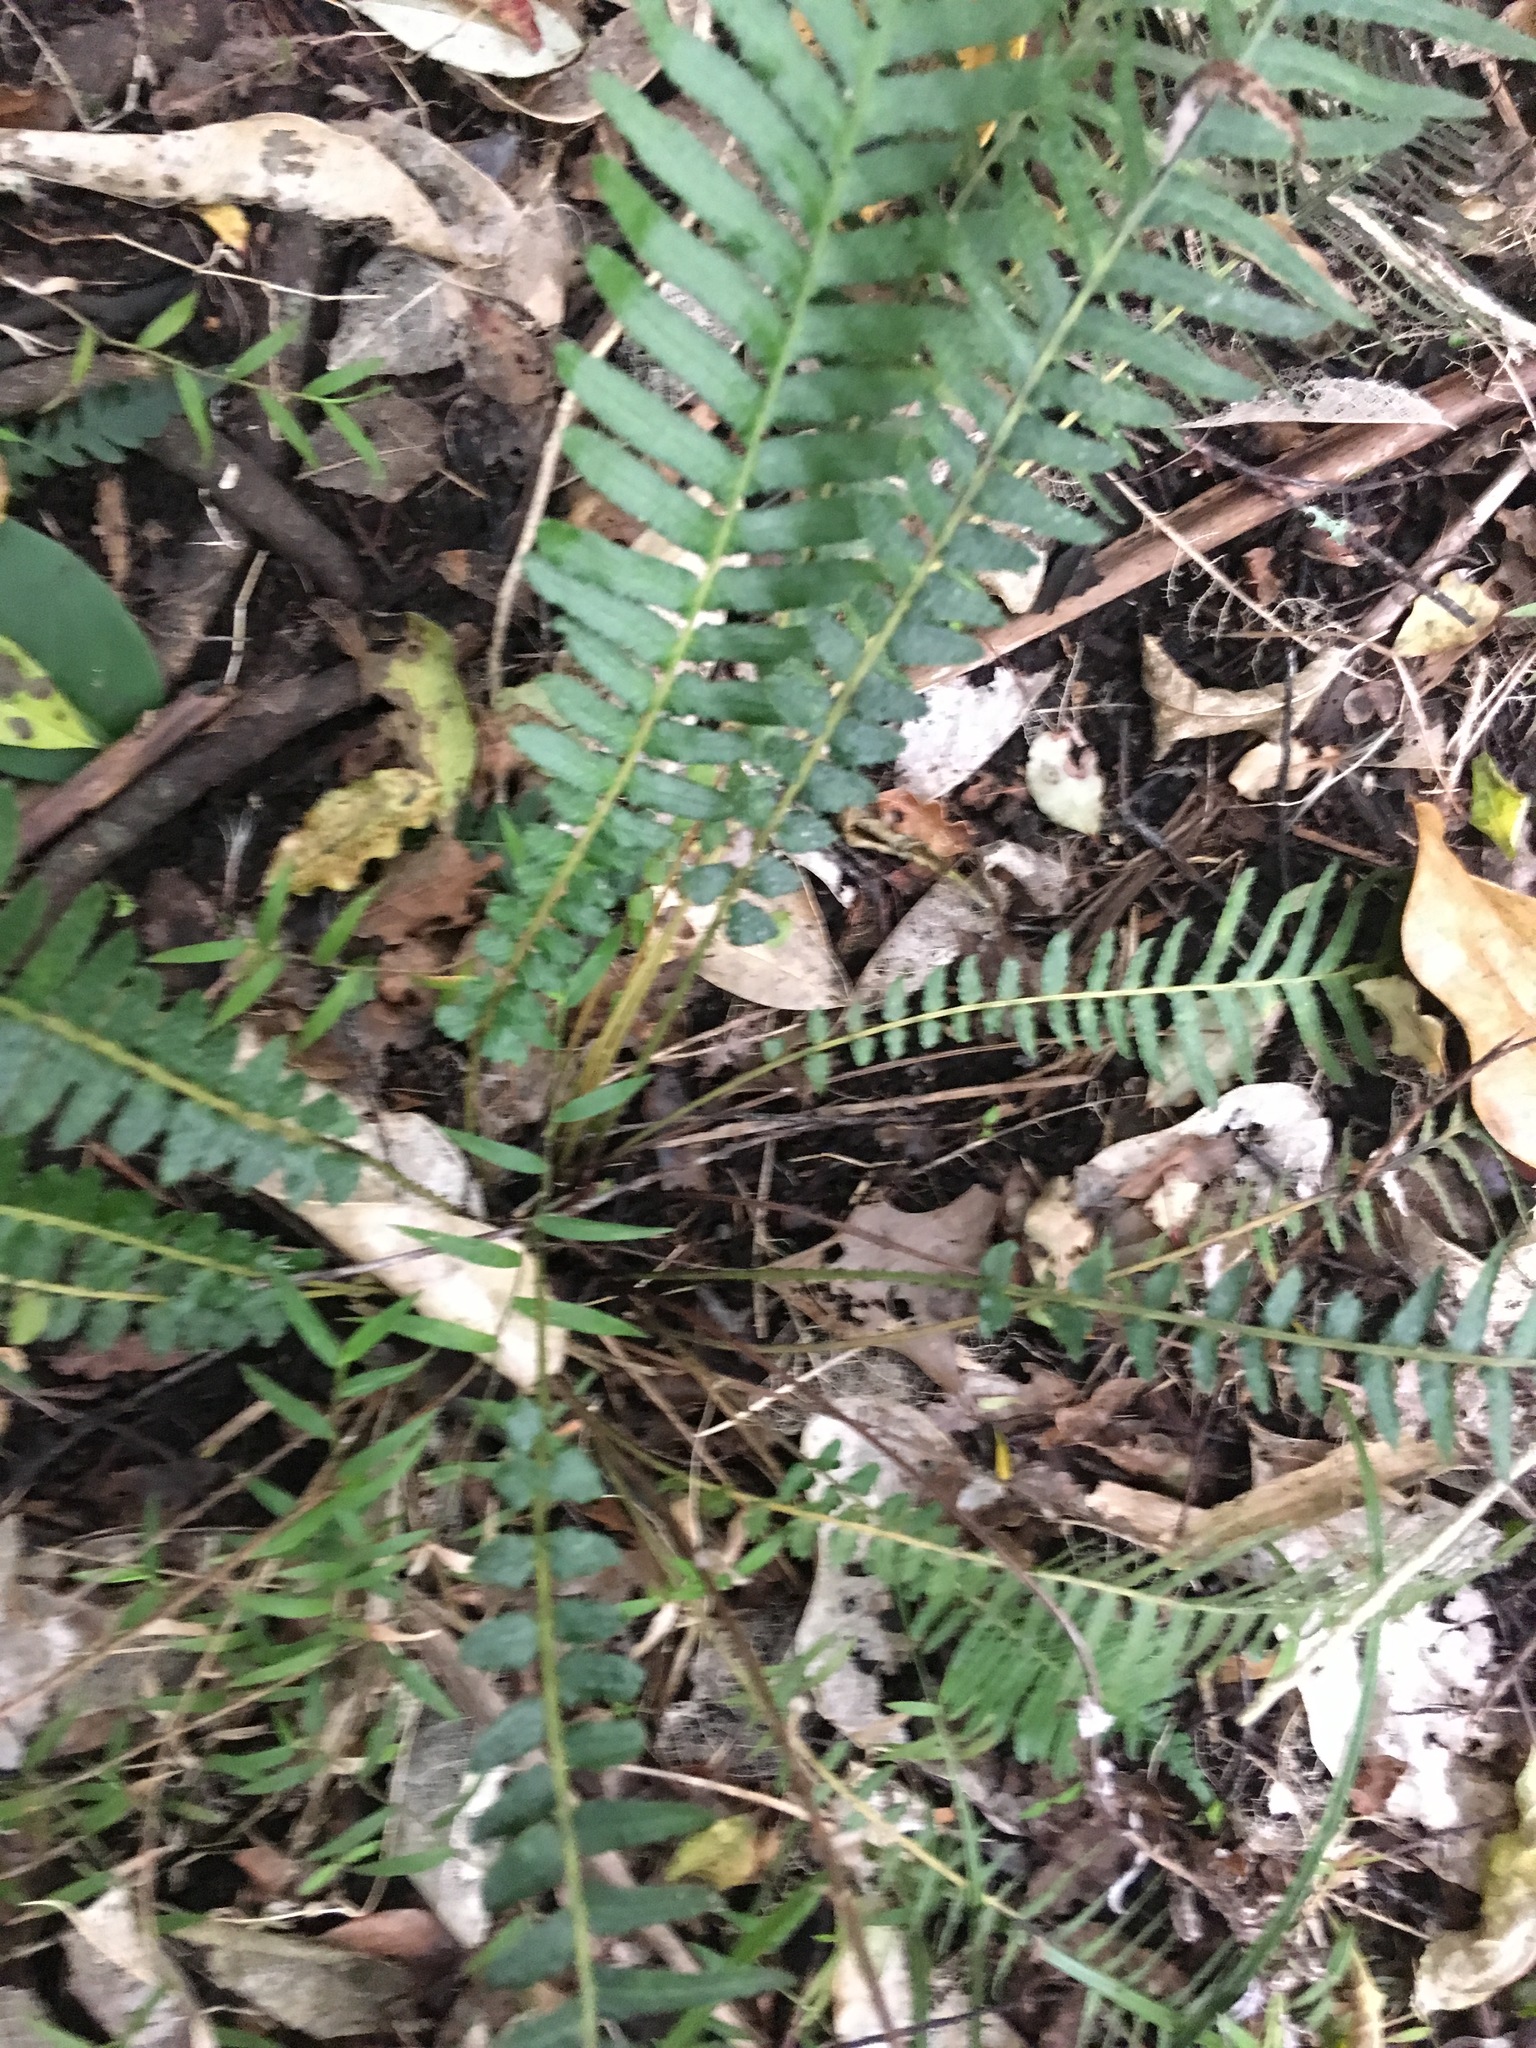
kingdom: Plantae
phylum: Tracheophyta
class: Polypodiopsida
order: Polypodiales
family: Blechnaceae
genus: Doodia
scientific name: Doodia australis
